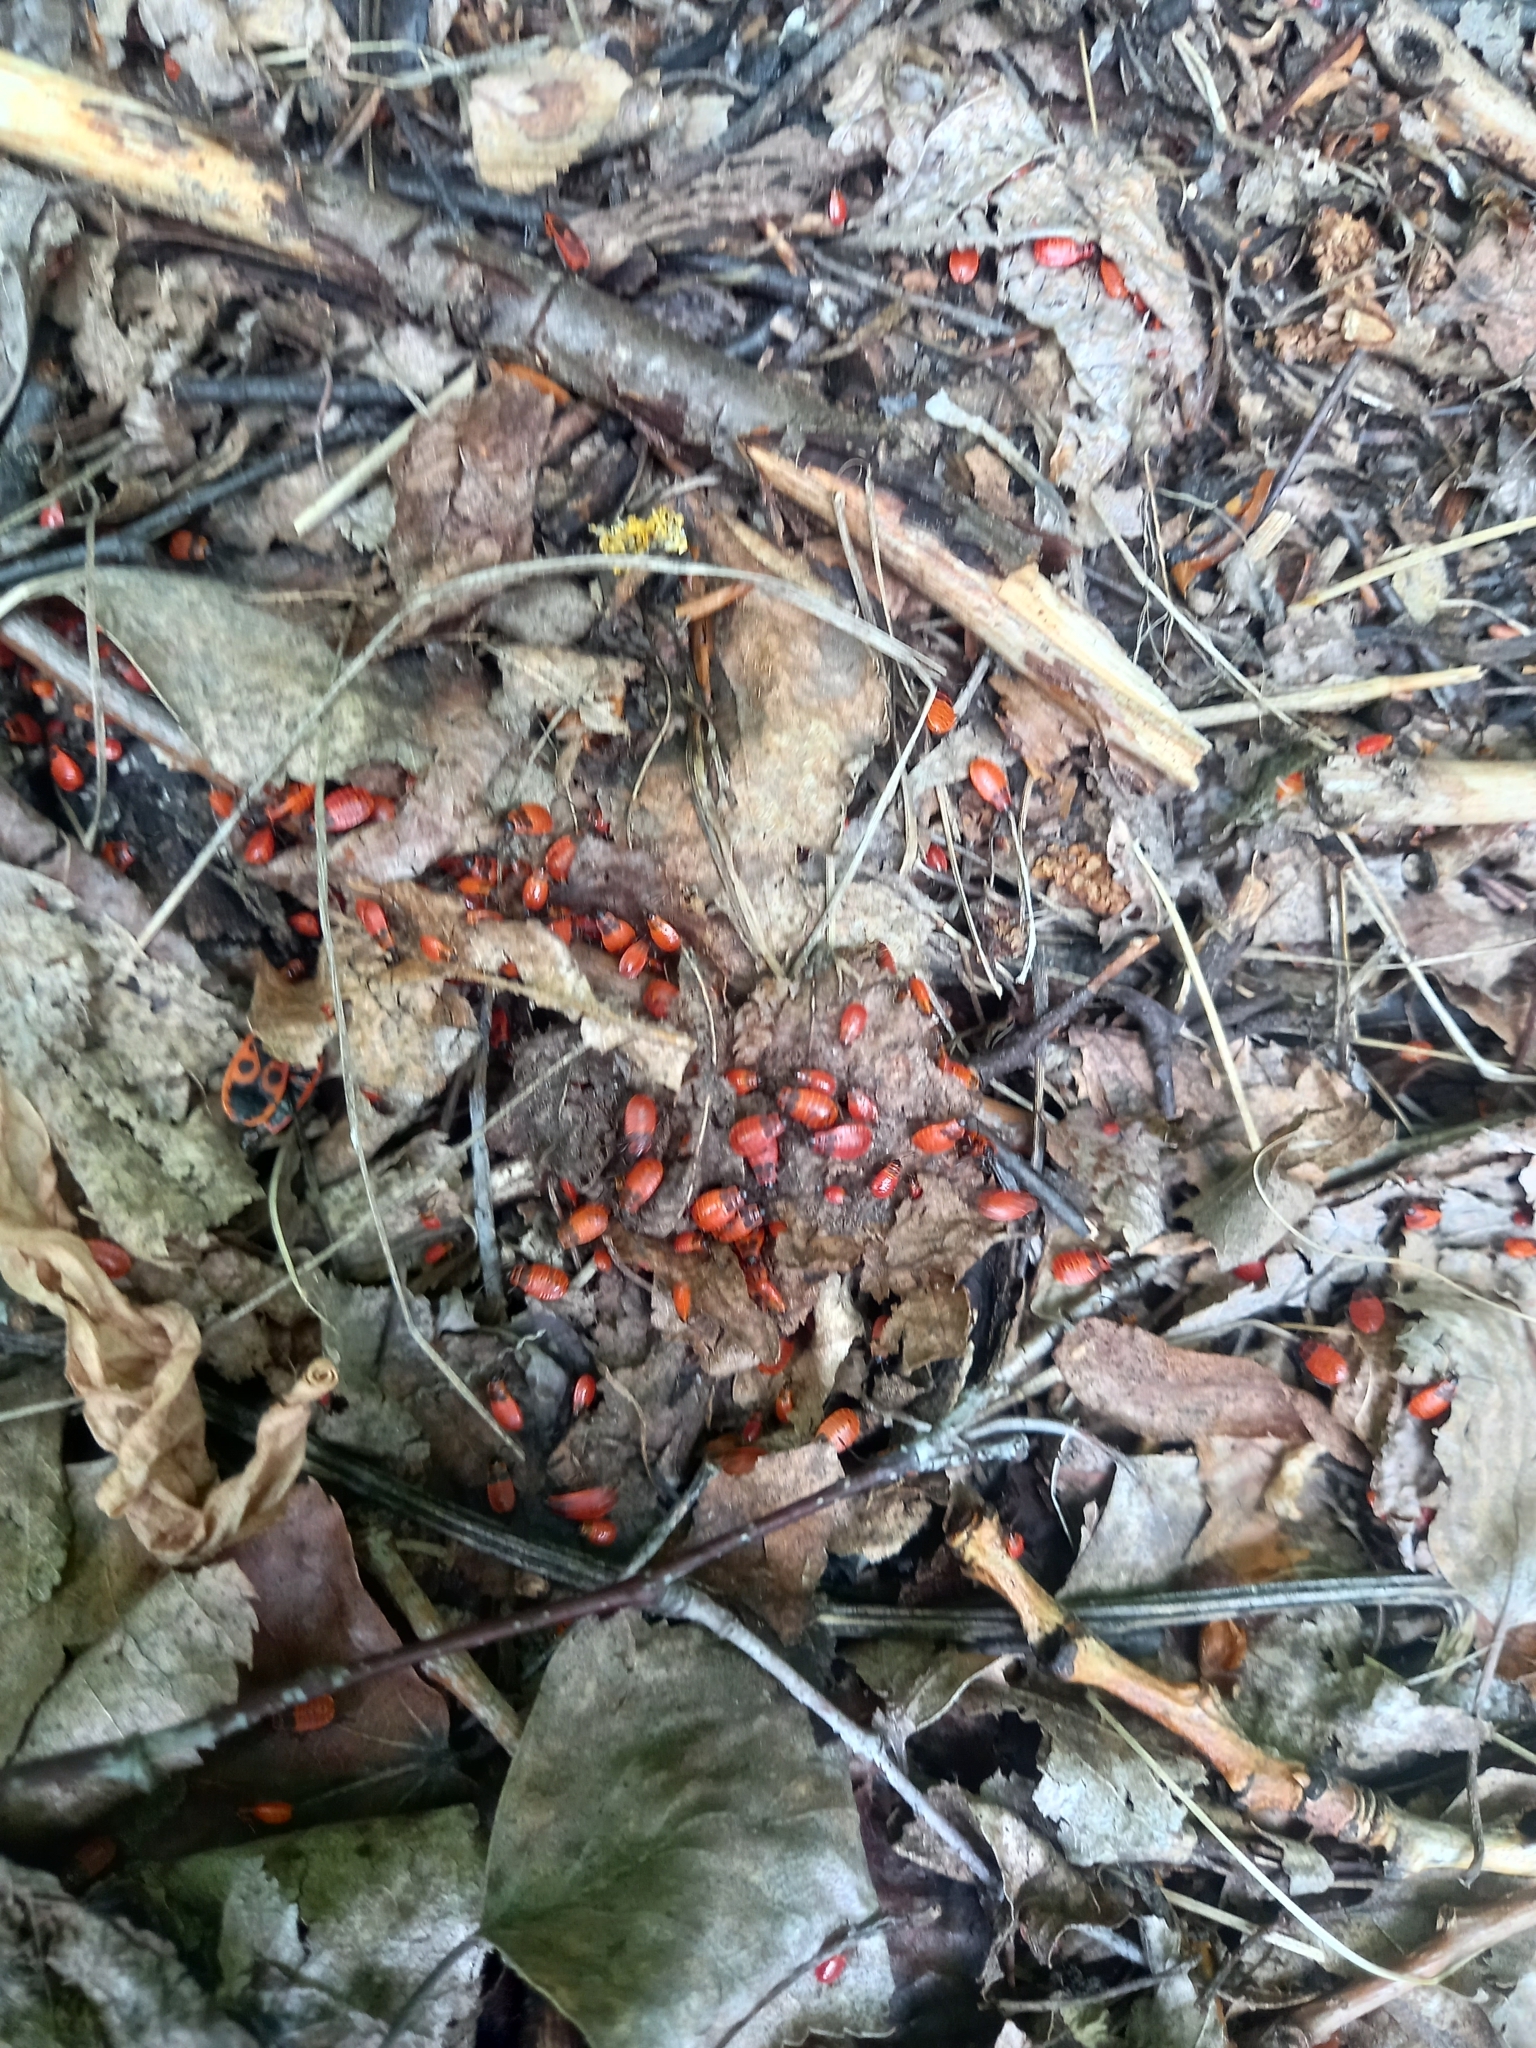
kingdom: Animalia
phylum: Arthropoda
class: Insecta
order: Hemiptera
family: Pyrrhocoridae
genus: Pyrrhocoris
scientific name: Pyrrhocoris apterus
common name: Firebug
